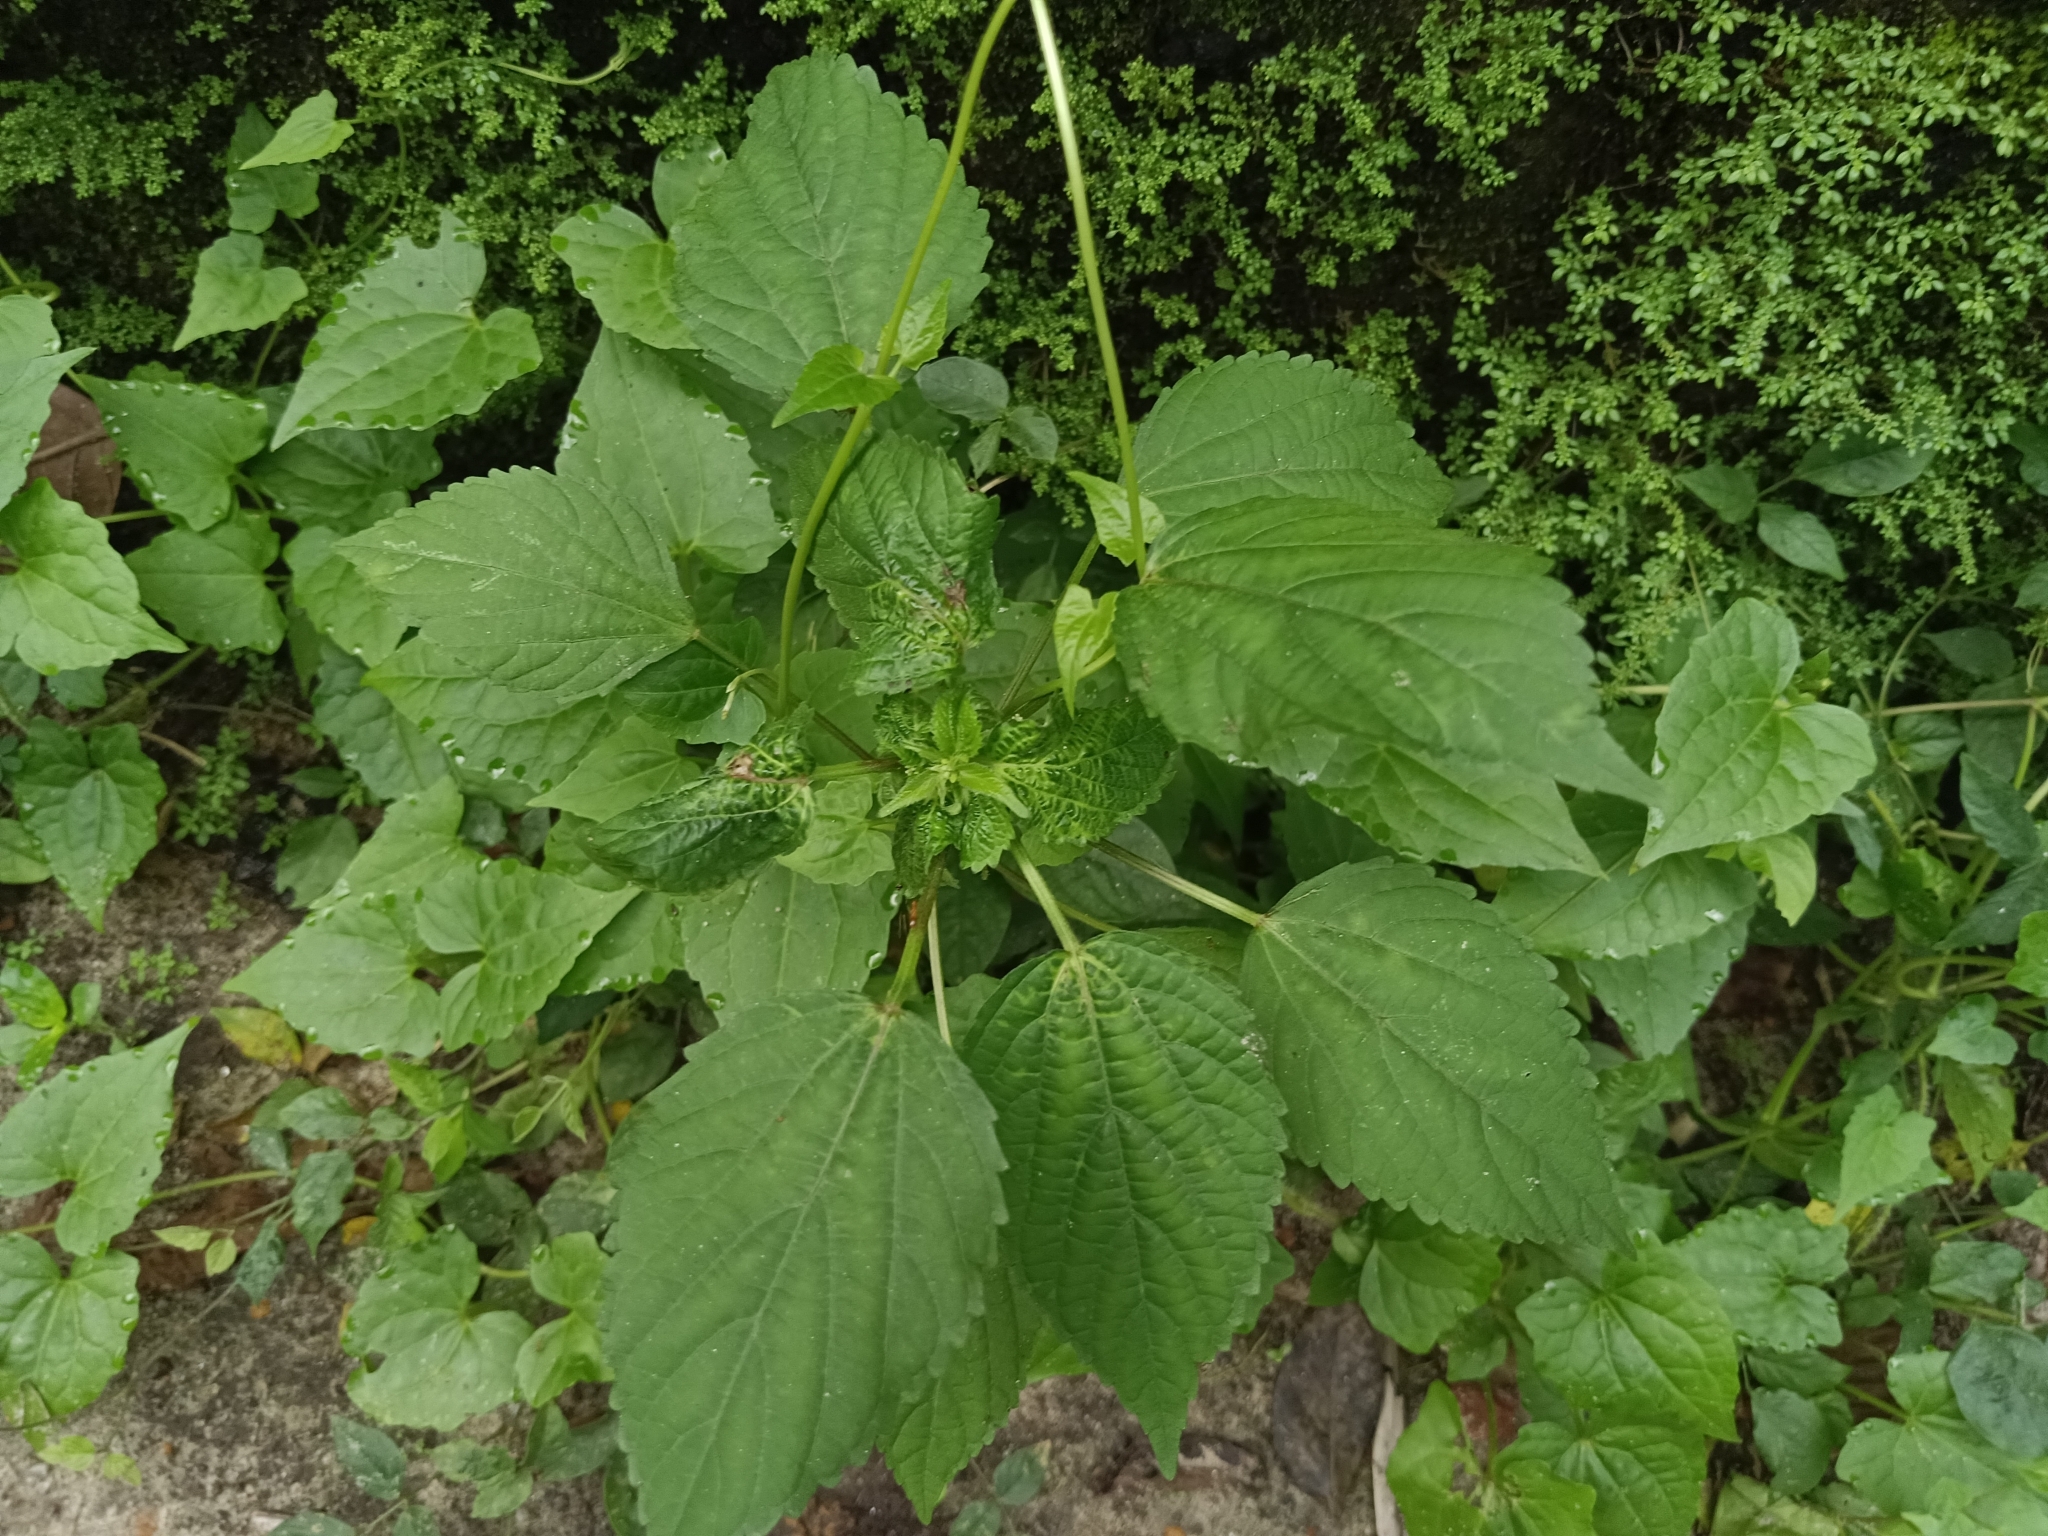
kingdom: Plantae
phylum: Tracheophyta
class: Magnoliopsida
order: Malpighiales
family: Euphorbiaceae
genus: Croton
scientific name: Croton hirtus
